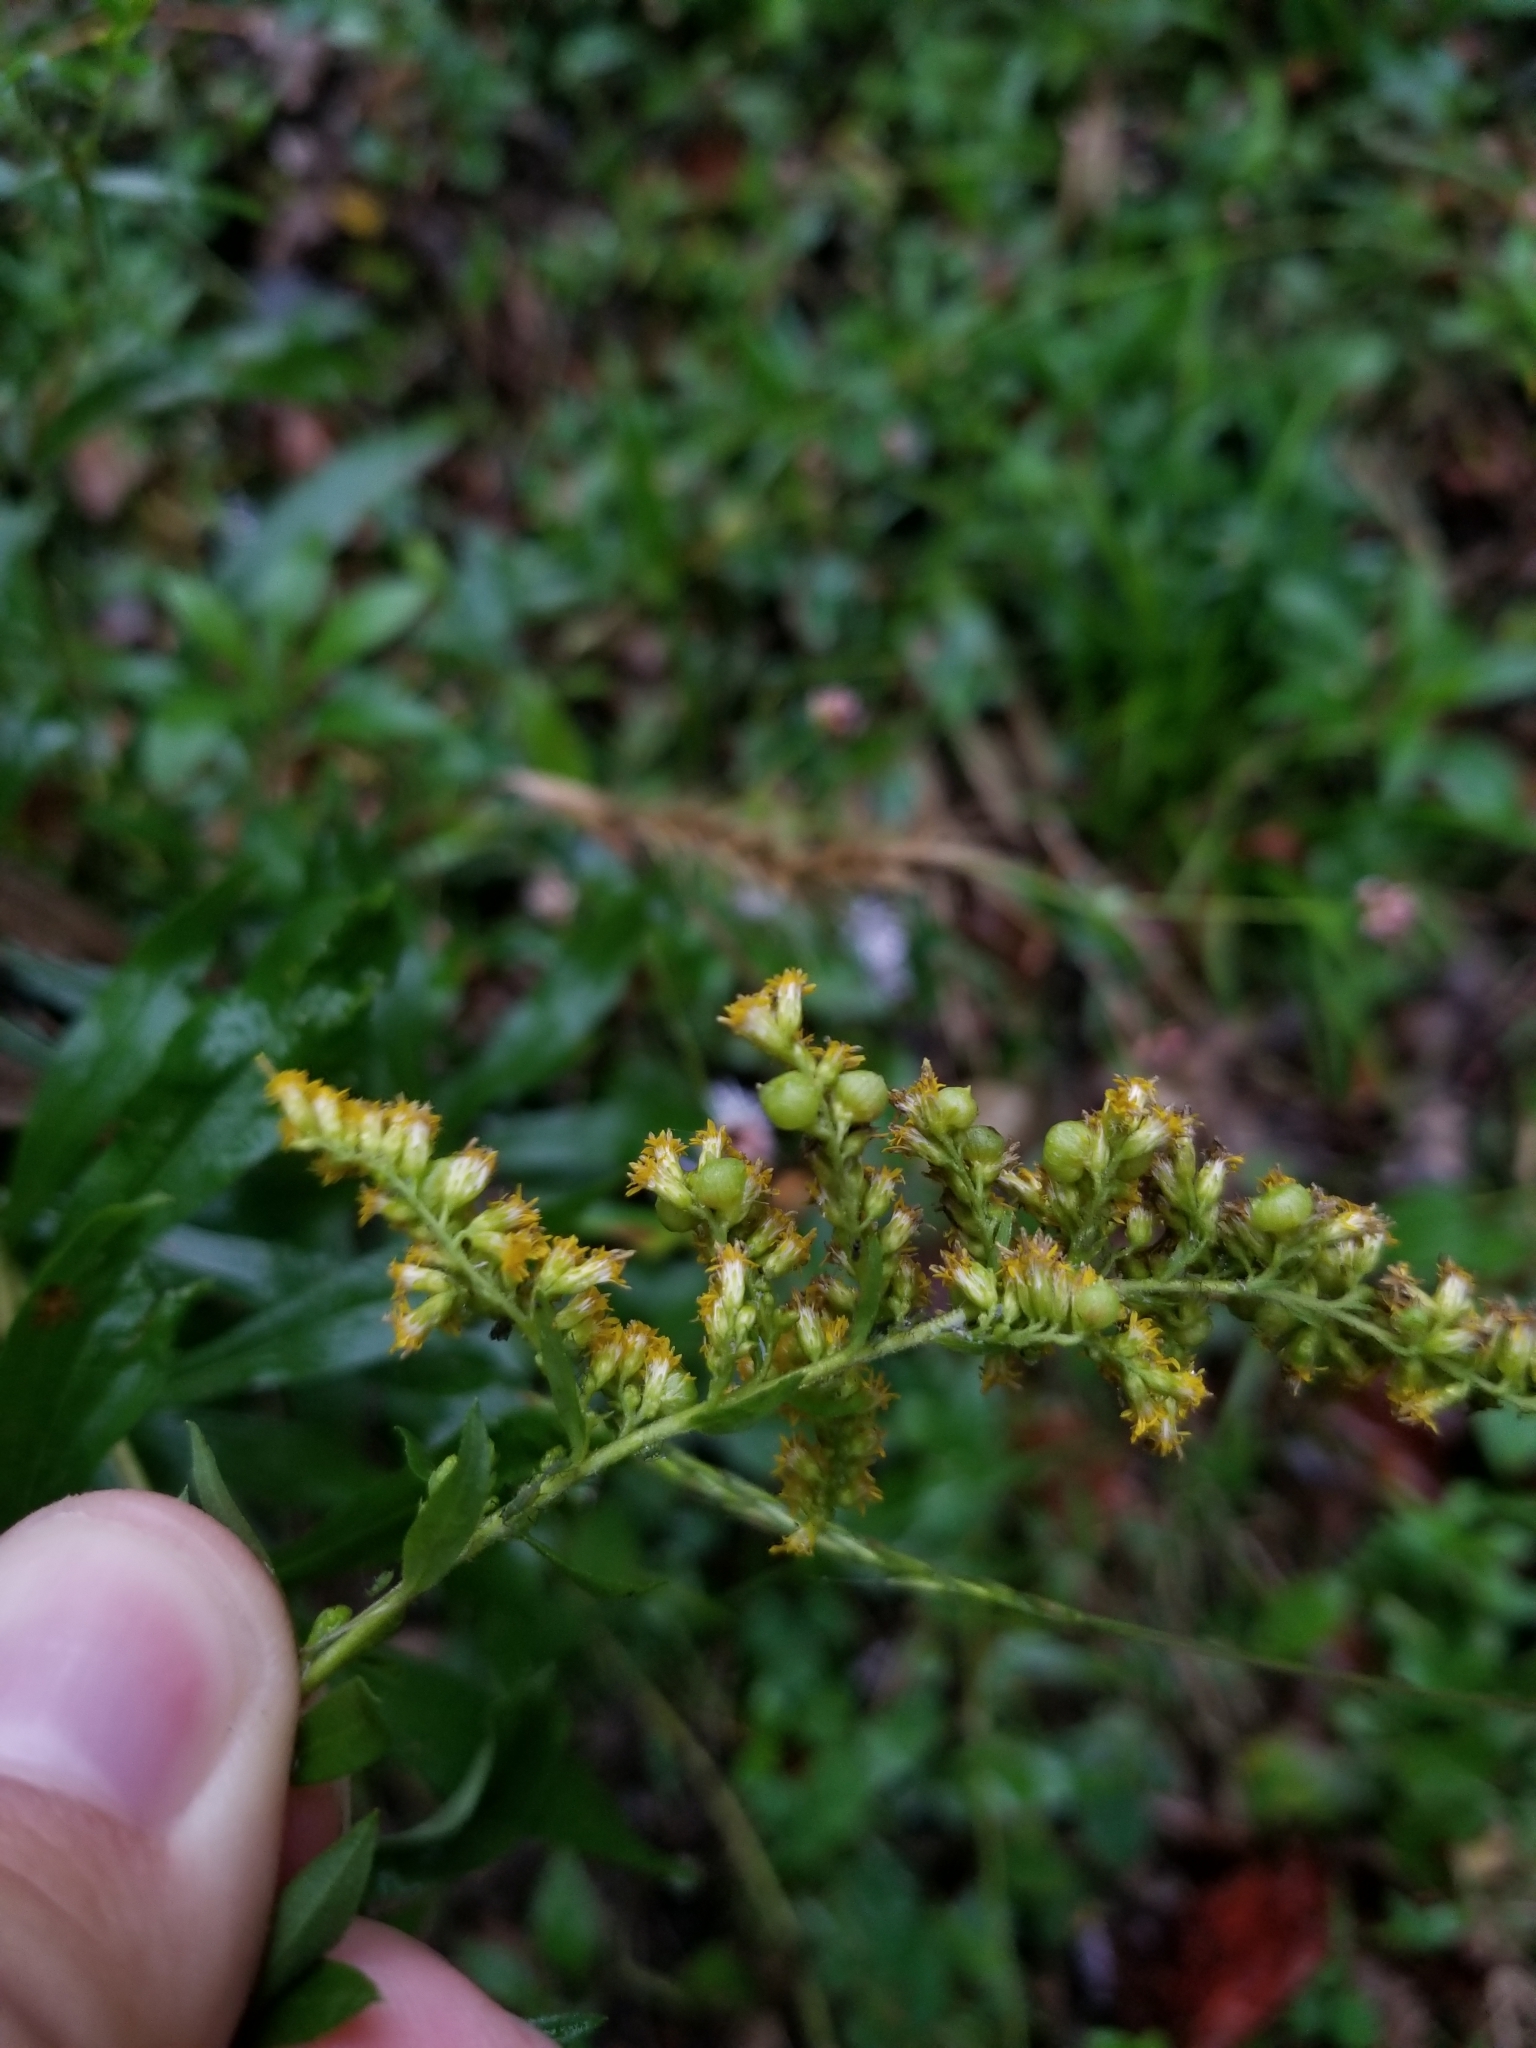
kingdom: Animalia
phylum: Arthropoda
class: Insecta
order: Diptera
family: Cecidomyiidae
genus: Schizomyia
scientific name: Schizomyia racemicola
